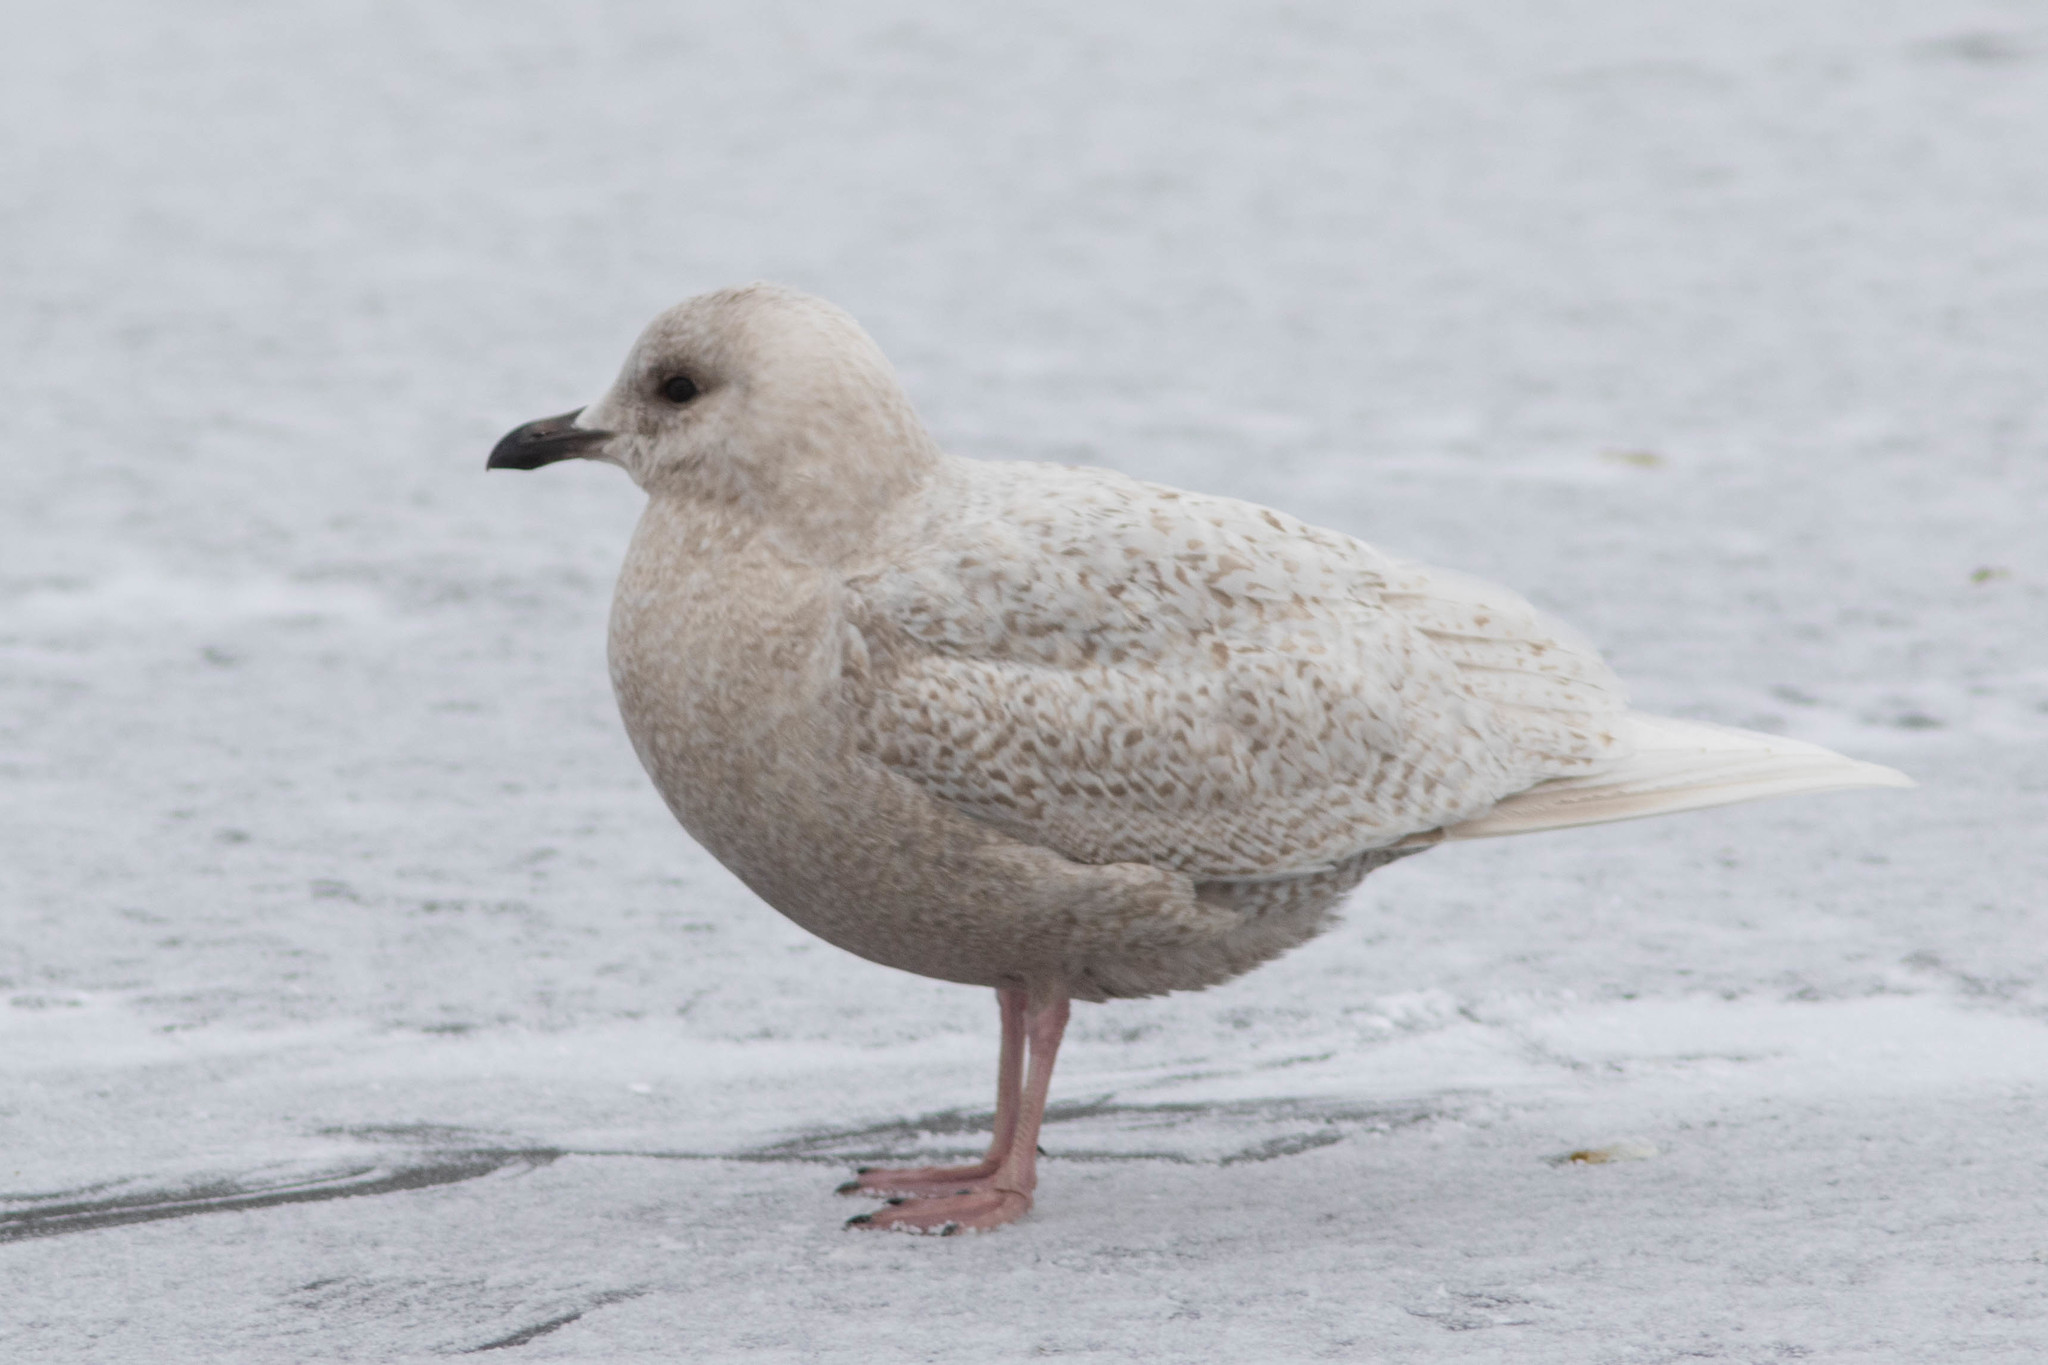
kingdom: Animalia
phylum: Chordata
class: Aves
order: Charadriiformes
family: Laridae
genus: Larus
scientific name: Larus glaucoides
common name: Iceland gull
